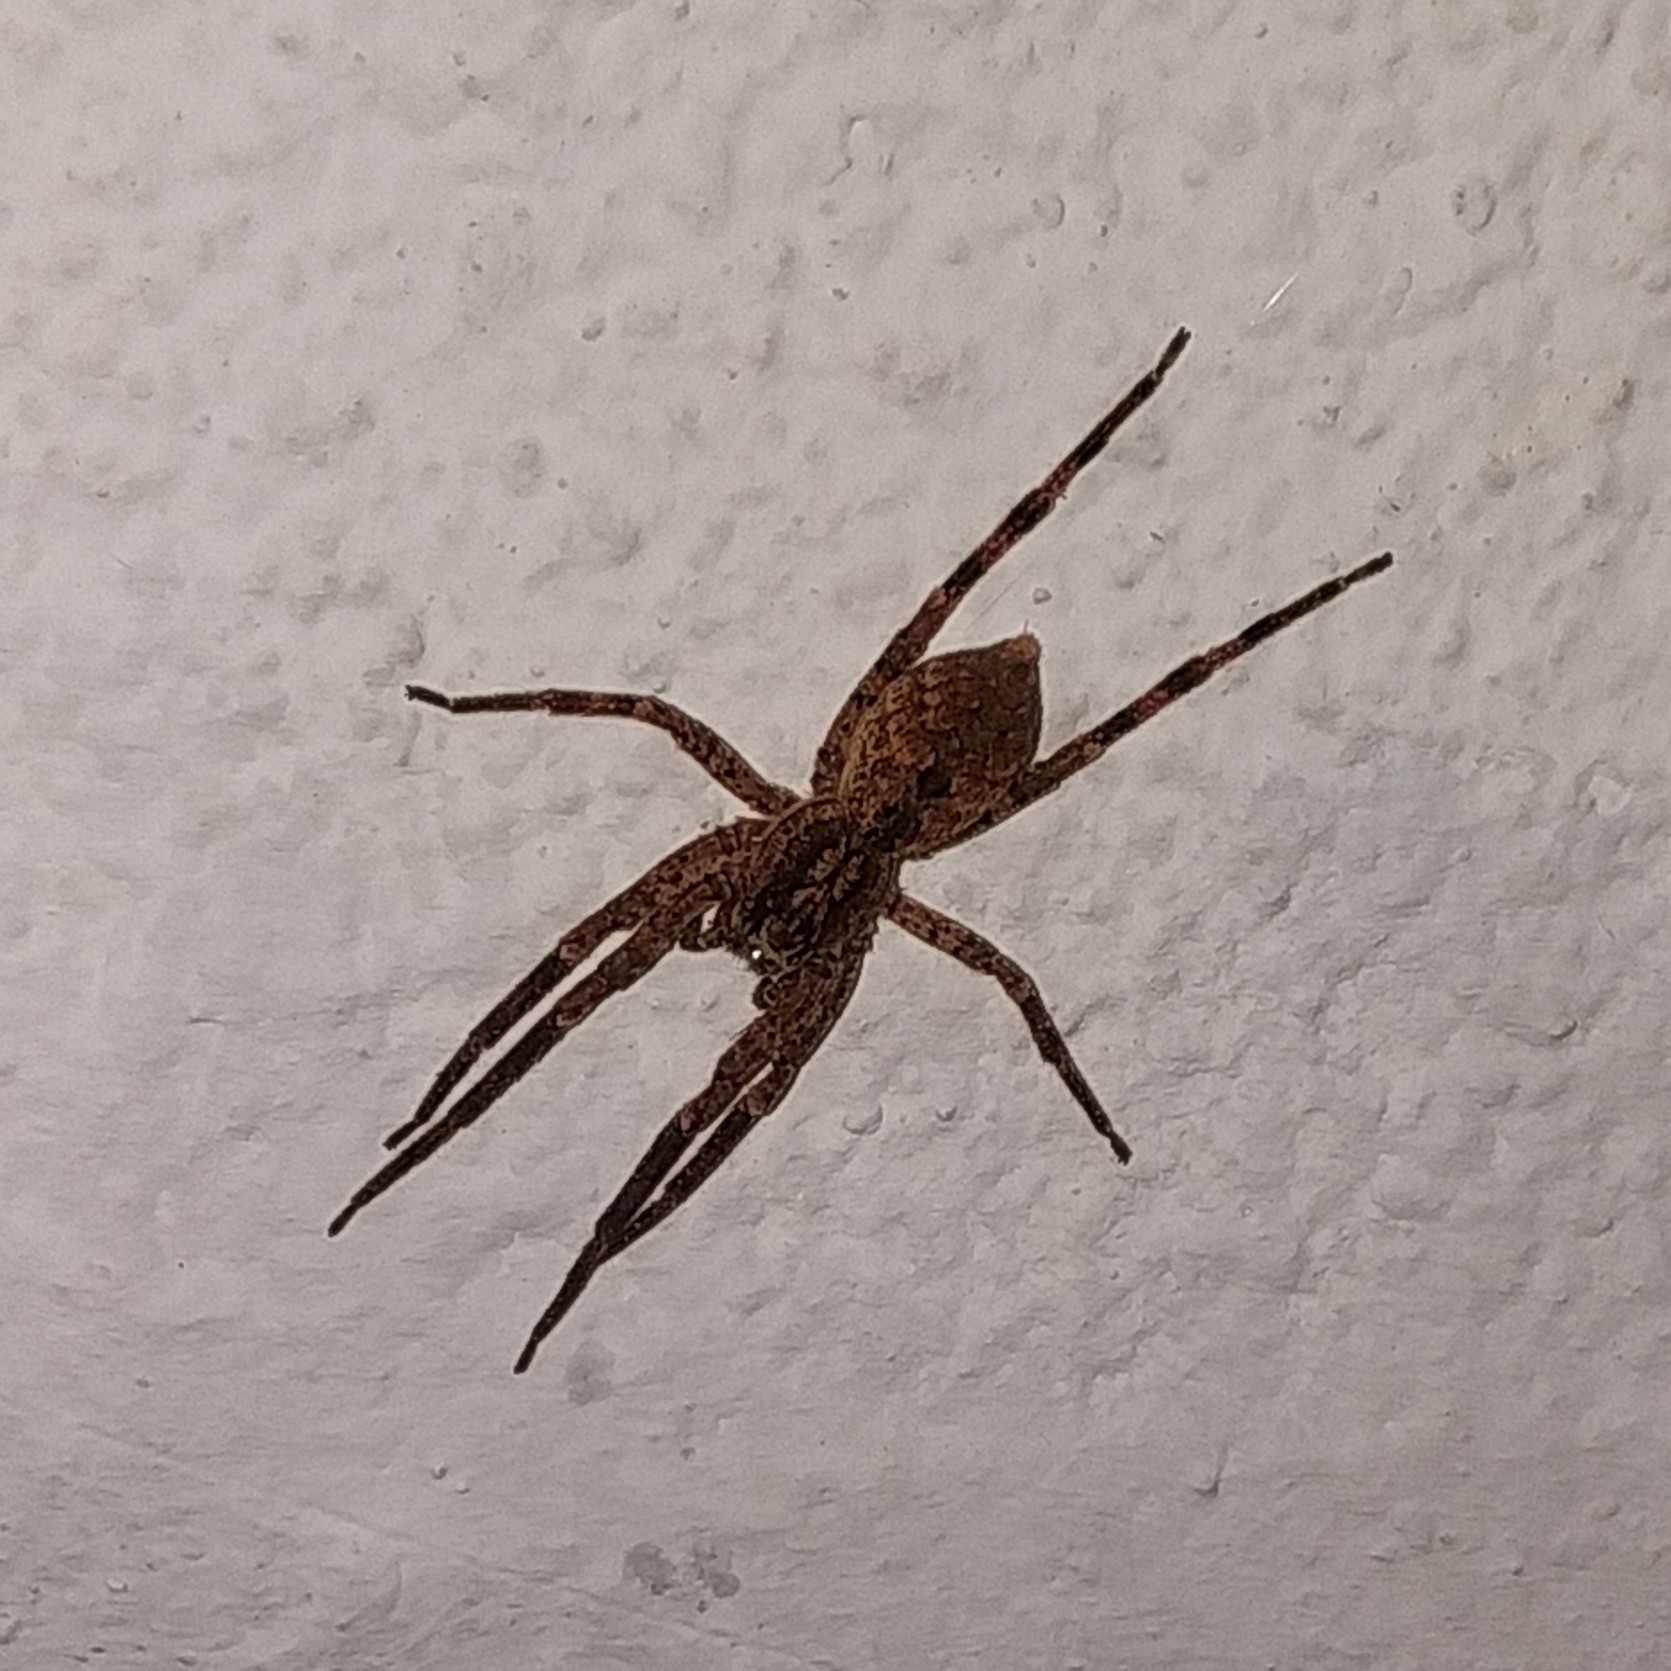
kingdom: Animalia
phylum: Arthropoda
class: Arachnida
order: Araneae
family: Zoropsidae
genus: Zoropsis
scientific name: Zoropsis spinimana
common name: Zoropsid spider
